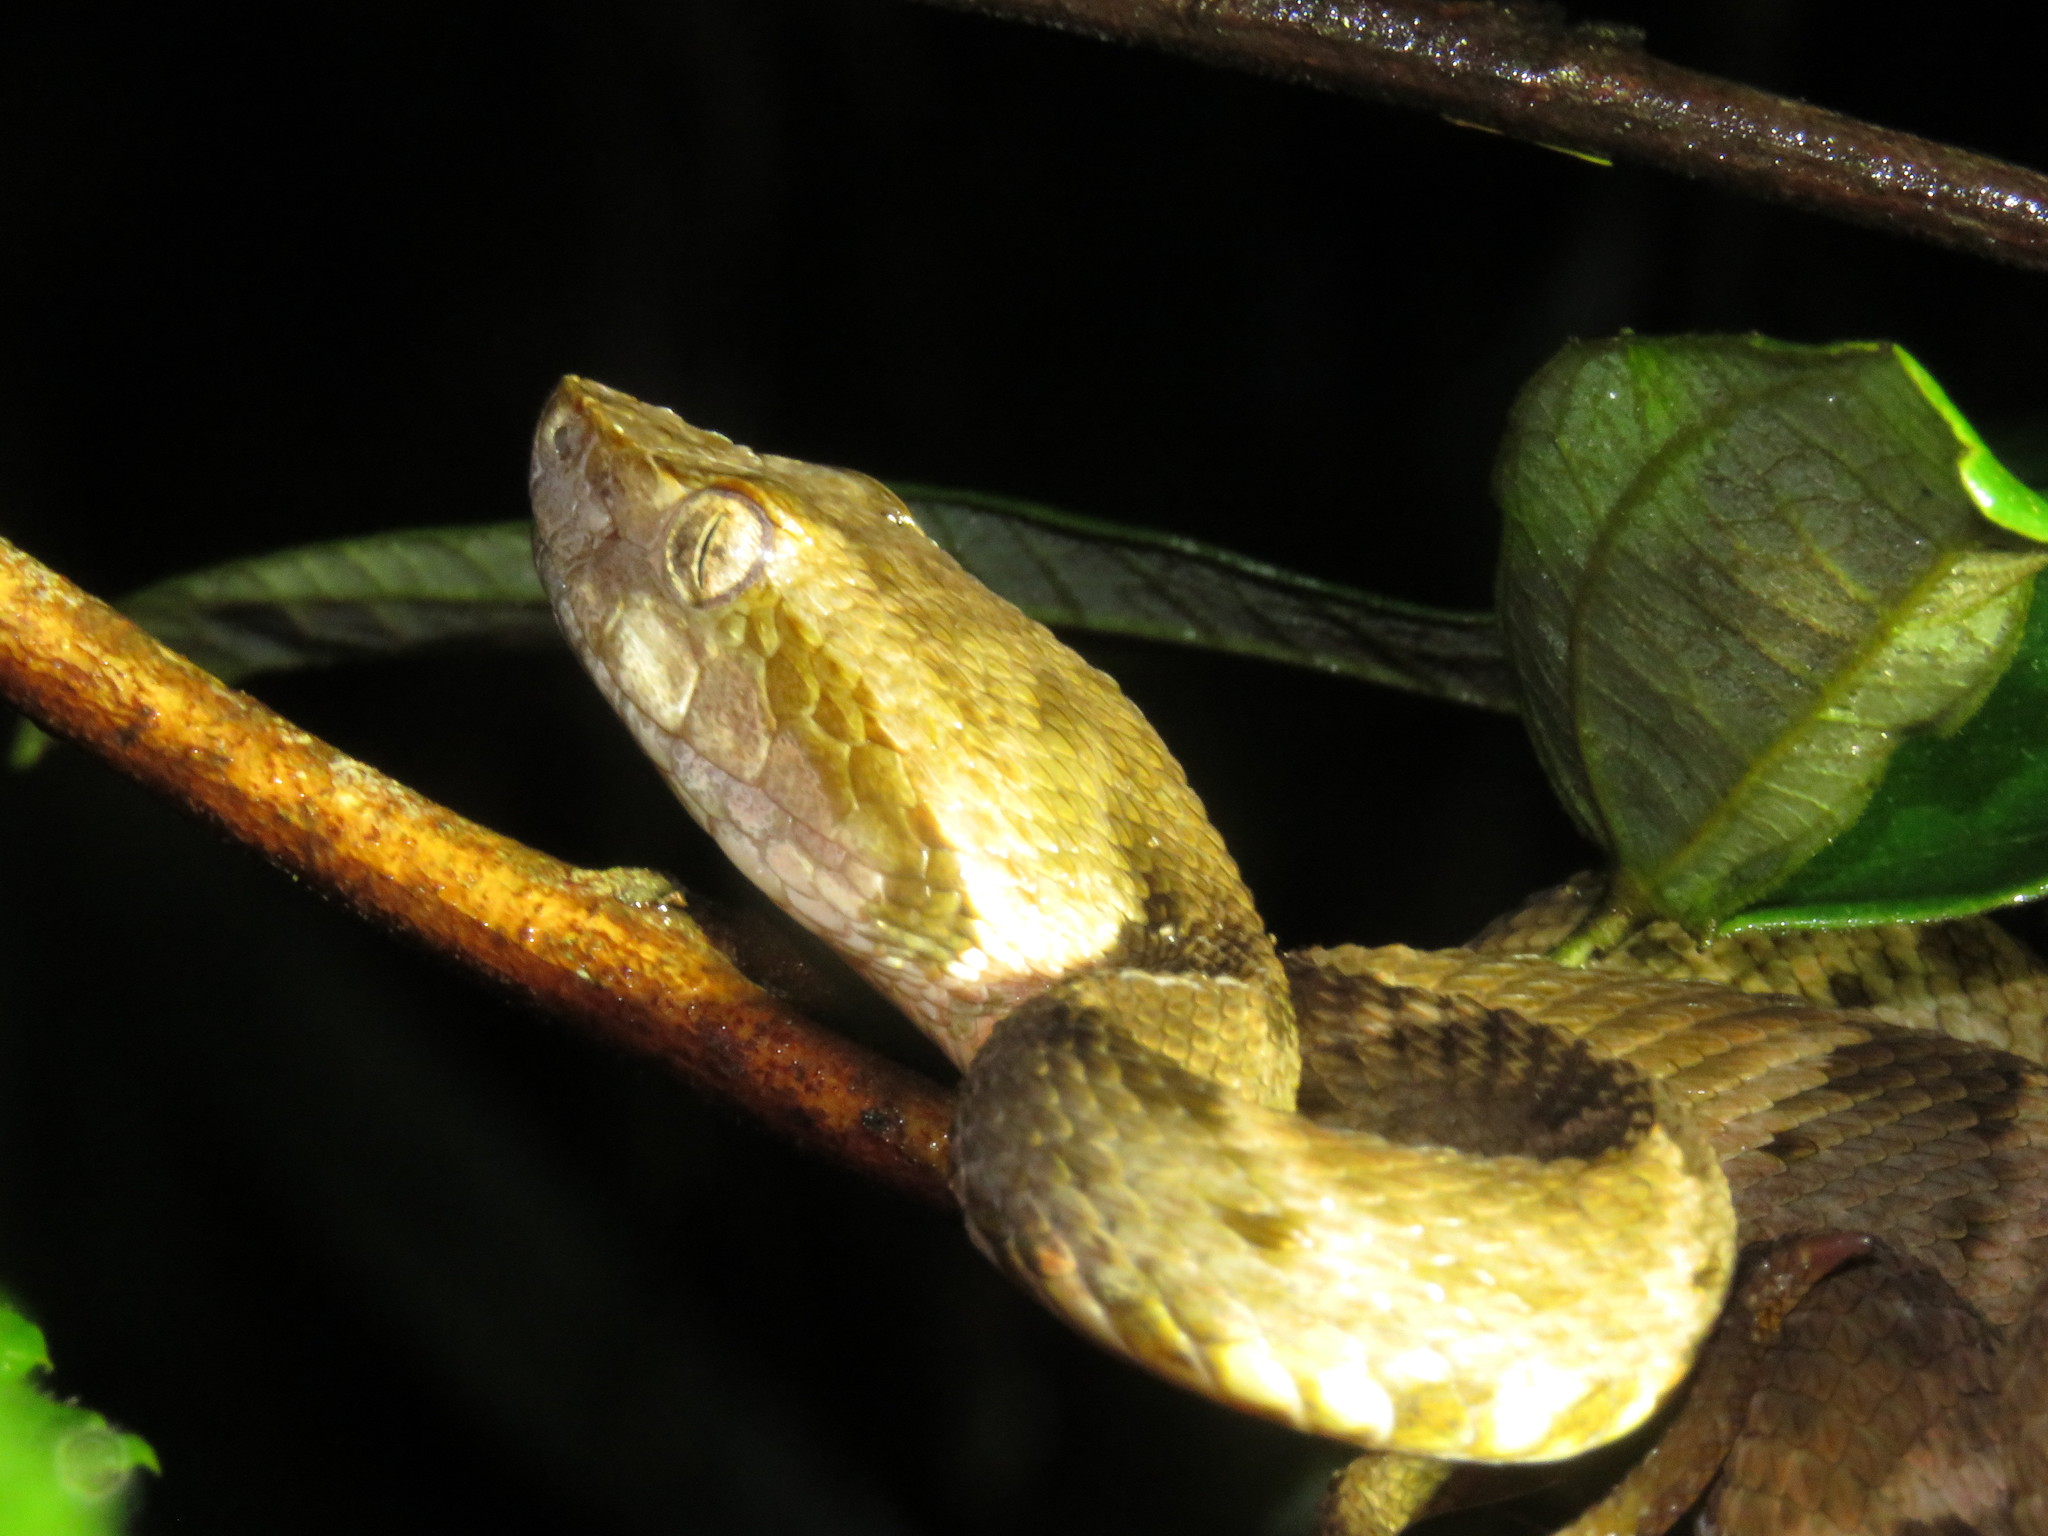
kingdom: Animalia
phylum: Chordata
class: Squamata
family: Viperidae
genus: Bothrops
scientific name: Bothrops atrox
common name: Common lancehead
